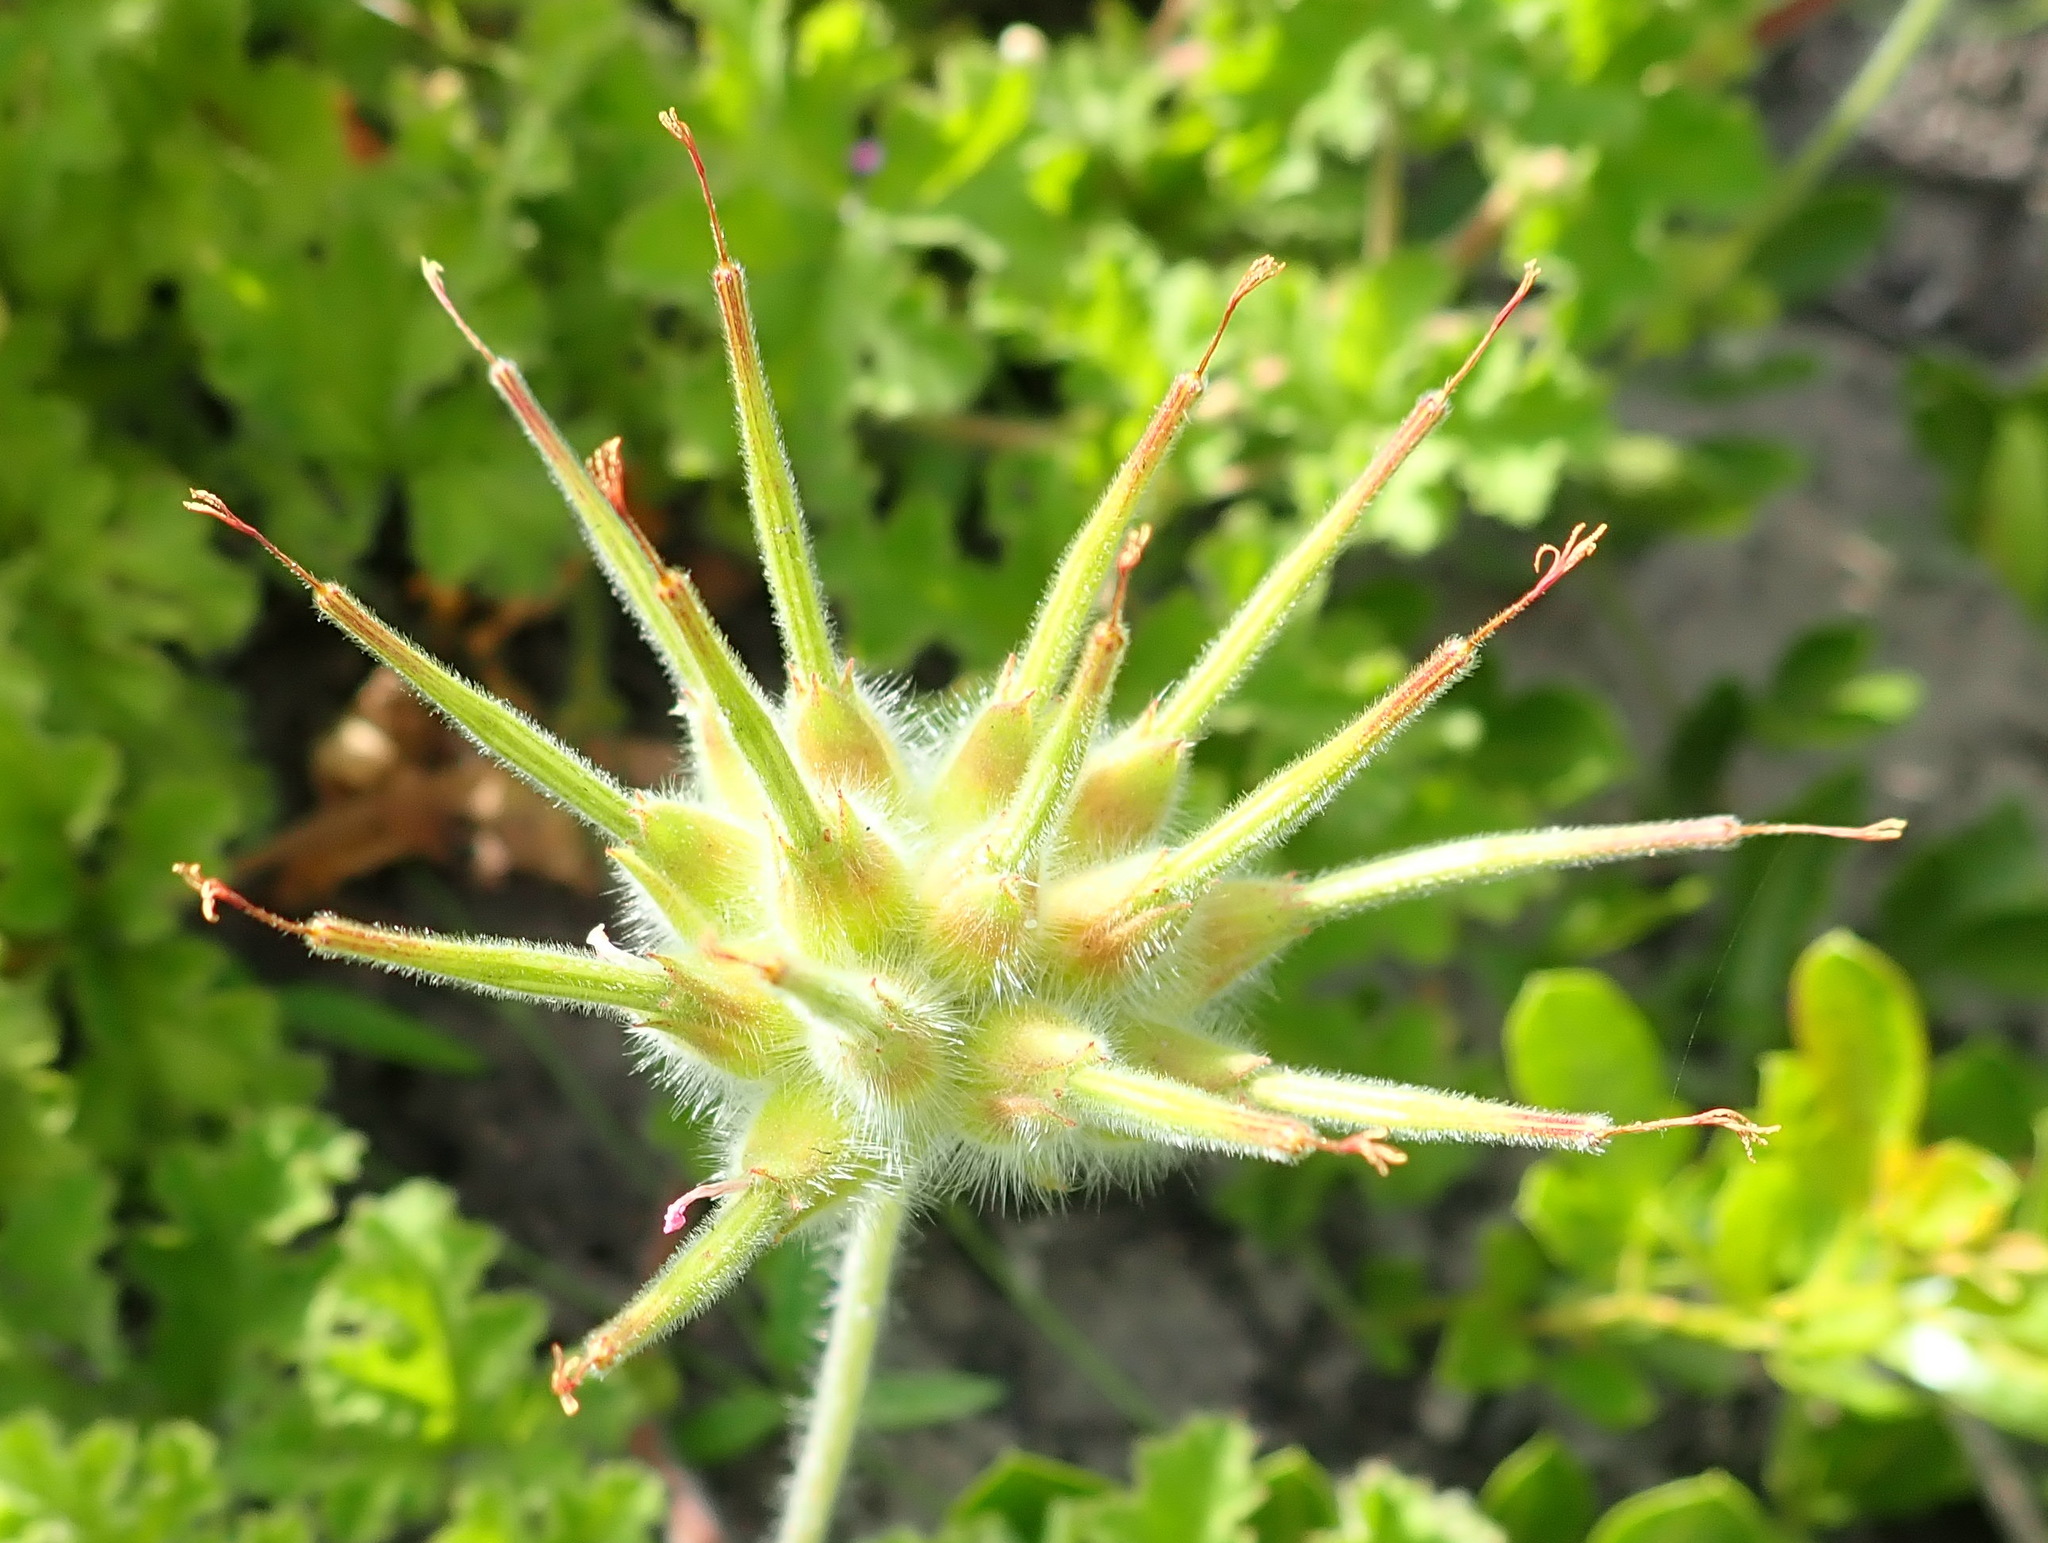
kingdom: Plantae
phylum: Tracheophyta
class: Magnoliopsida
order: Geraniales
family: Geraniaceae
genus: Pelargonium
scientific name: Pelargonium capitatum
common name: Rose scented geranium
